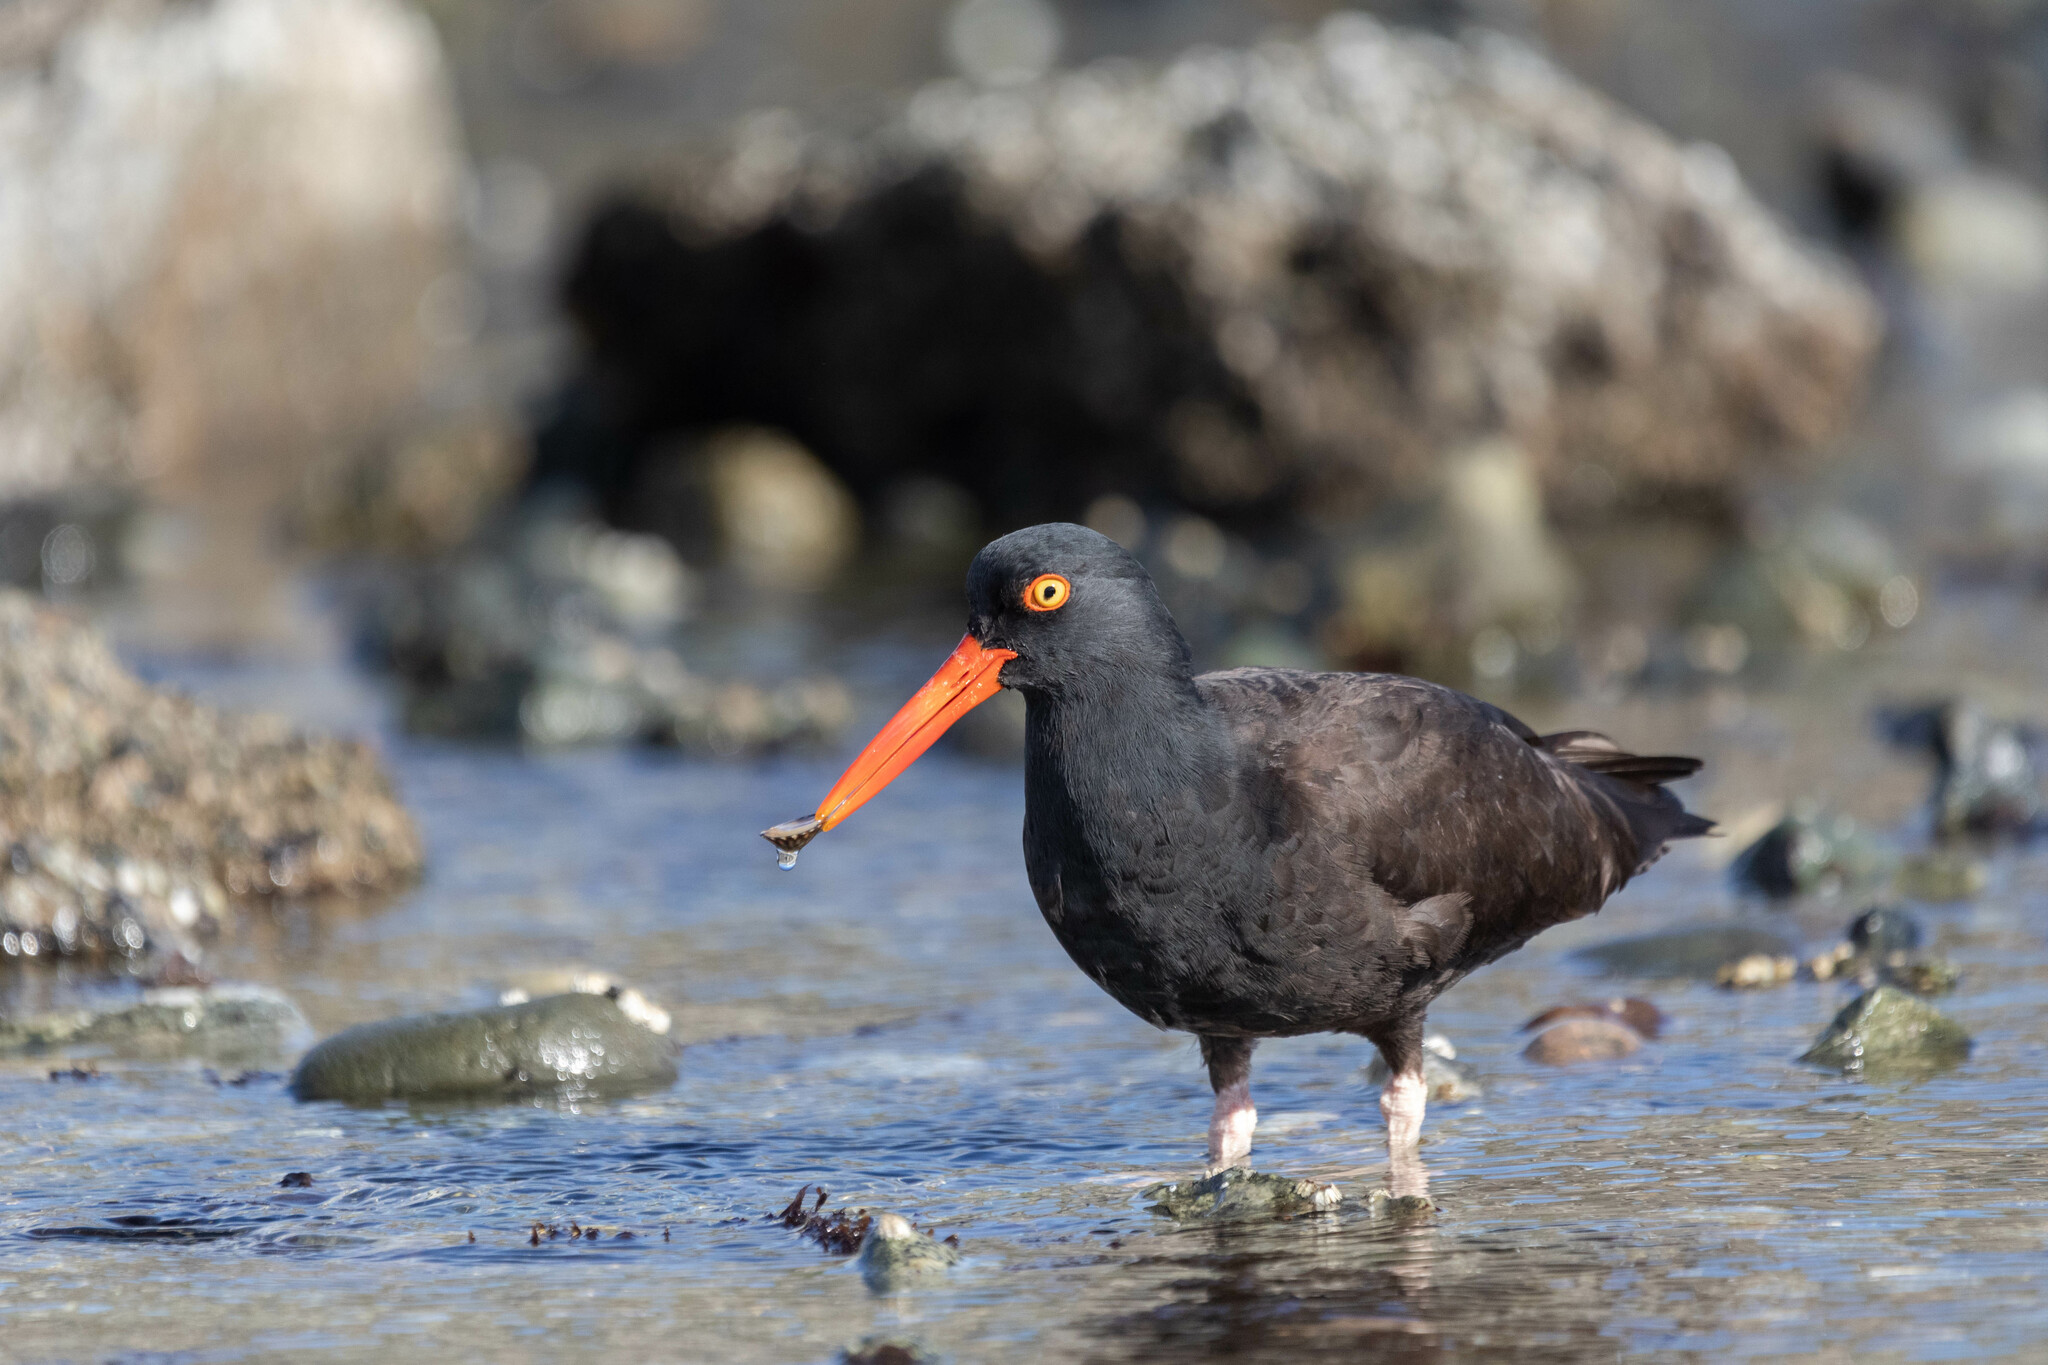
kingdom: Animalia
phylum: Chordata
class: Aves
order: Charadriiformes
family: Haematopodidae
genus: Haematopus
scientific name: Haematopus bachmani
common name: Black oystercatcher
